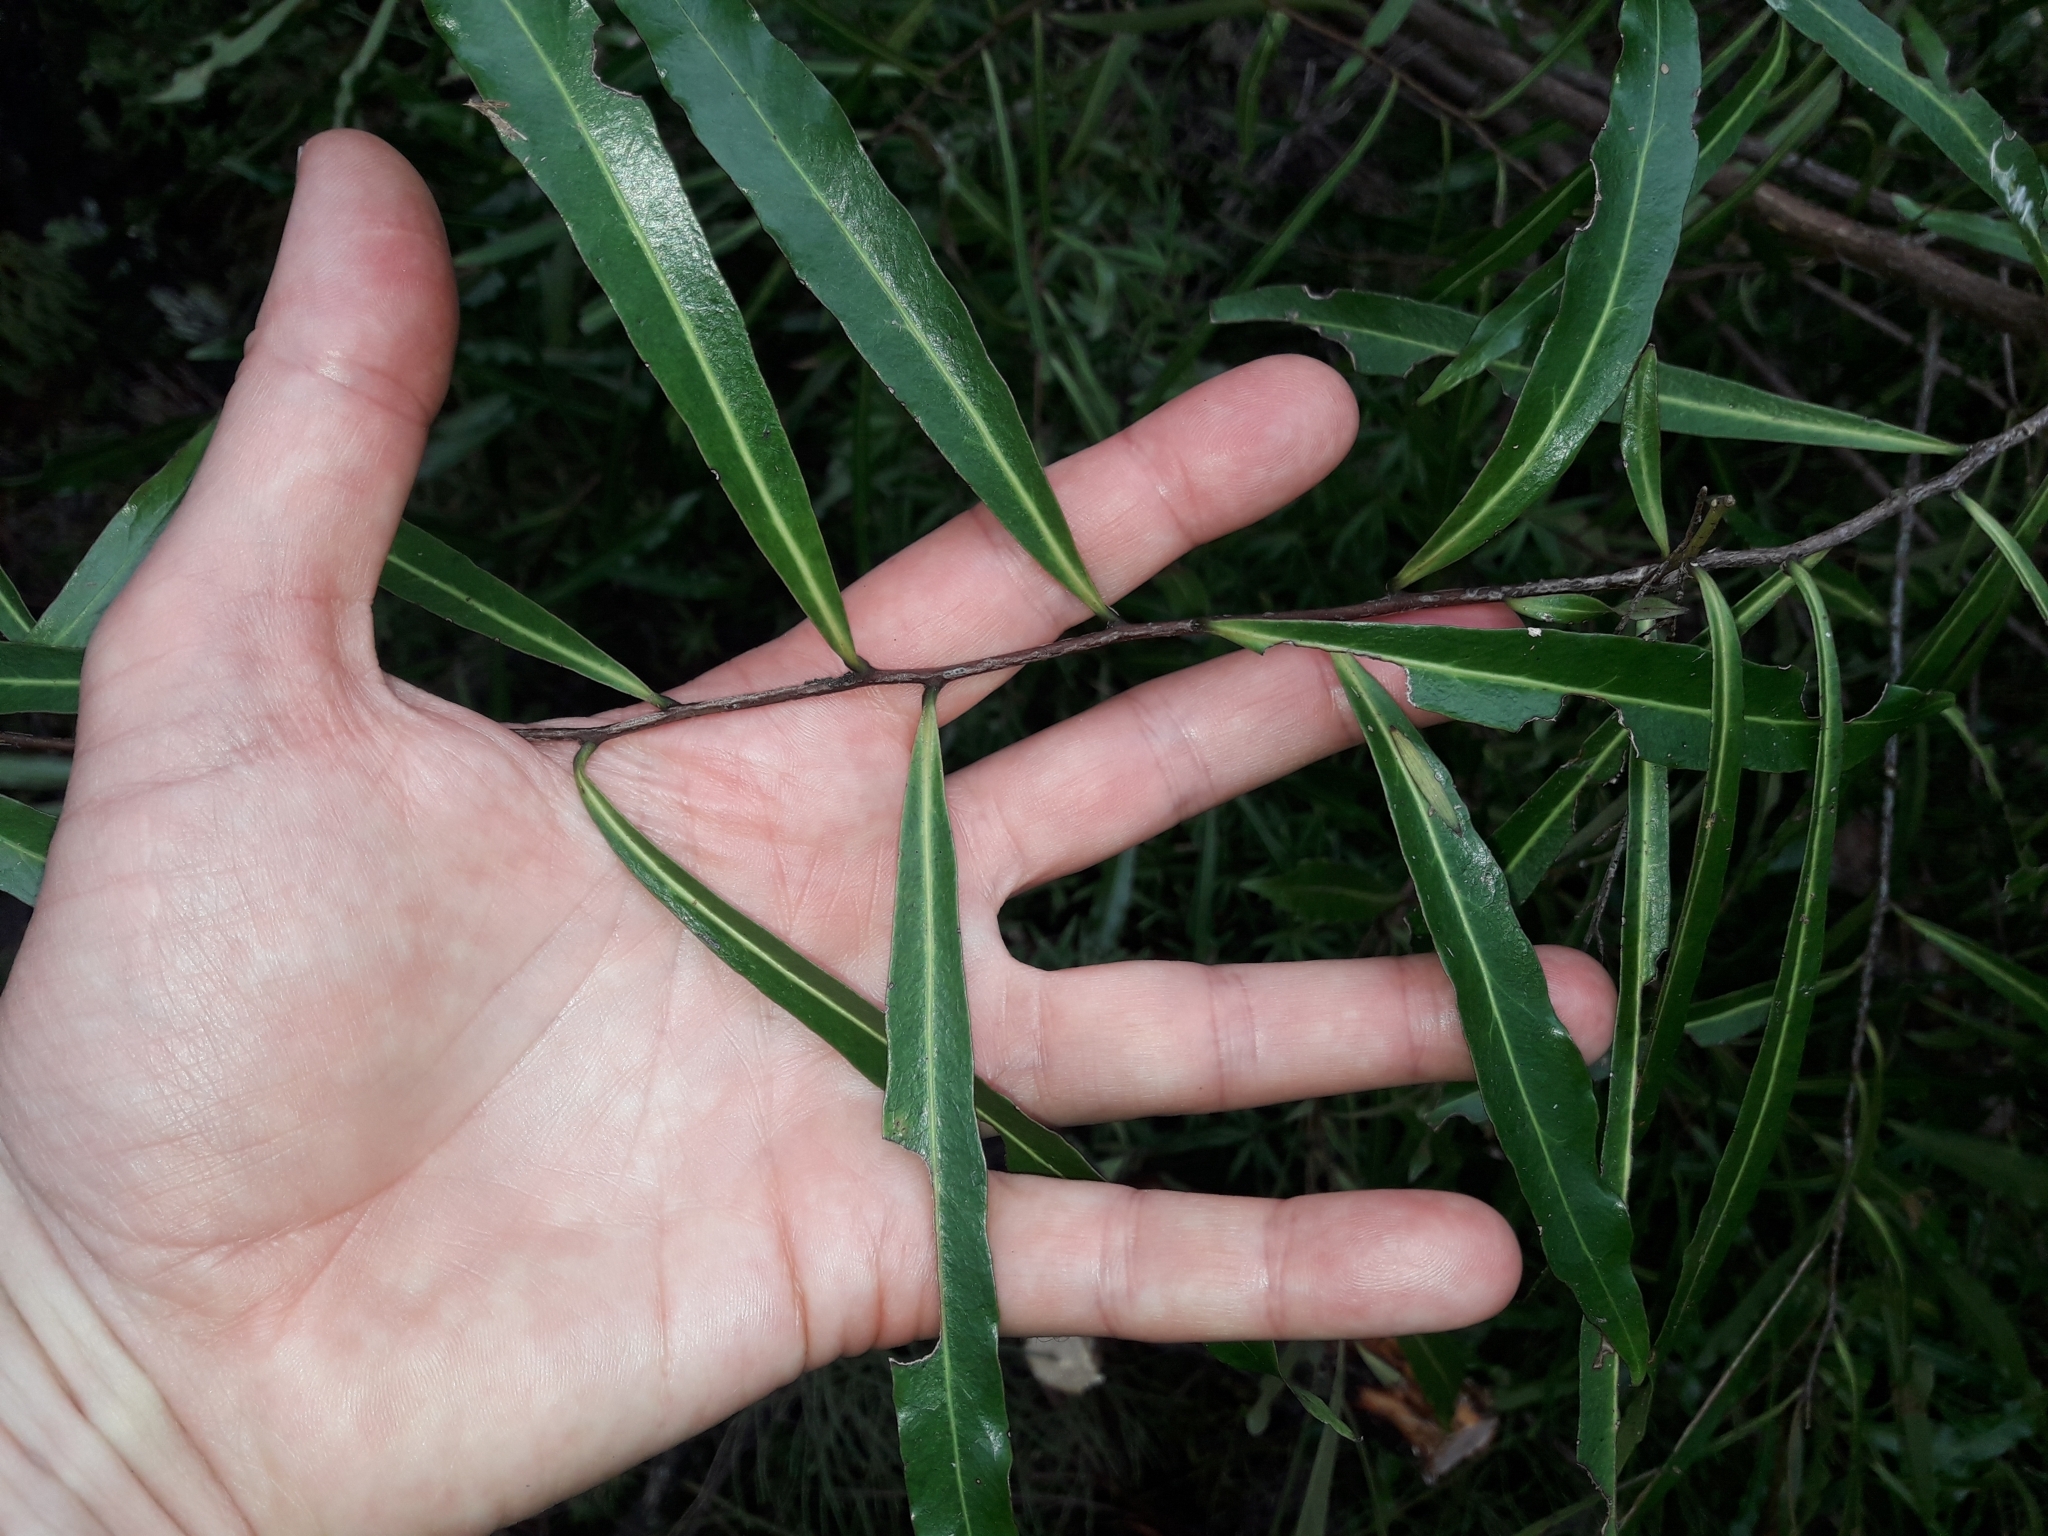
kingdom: Plantae
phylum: Tracheophyta
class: Magnoliopsida
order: Santalales
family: Nanodeaceae
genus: Mida
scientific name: Mida salicifolia
